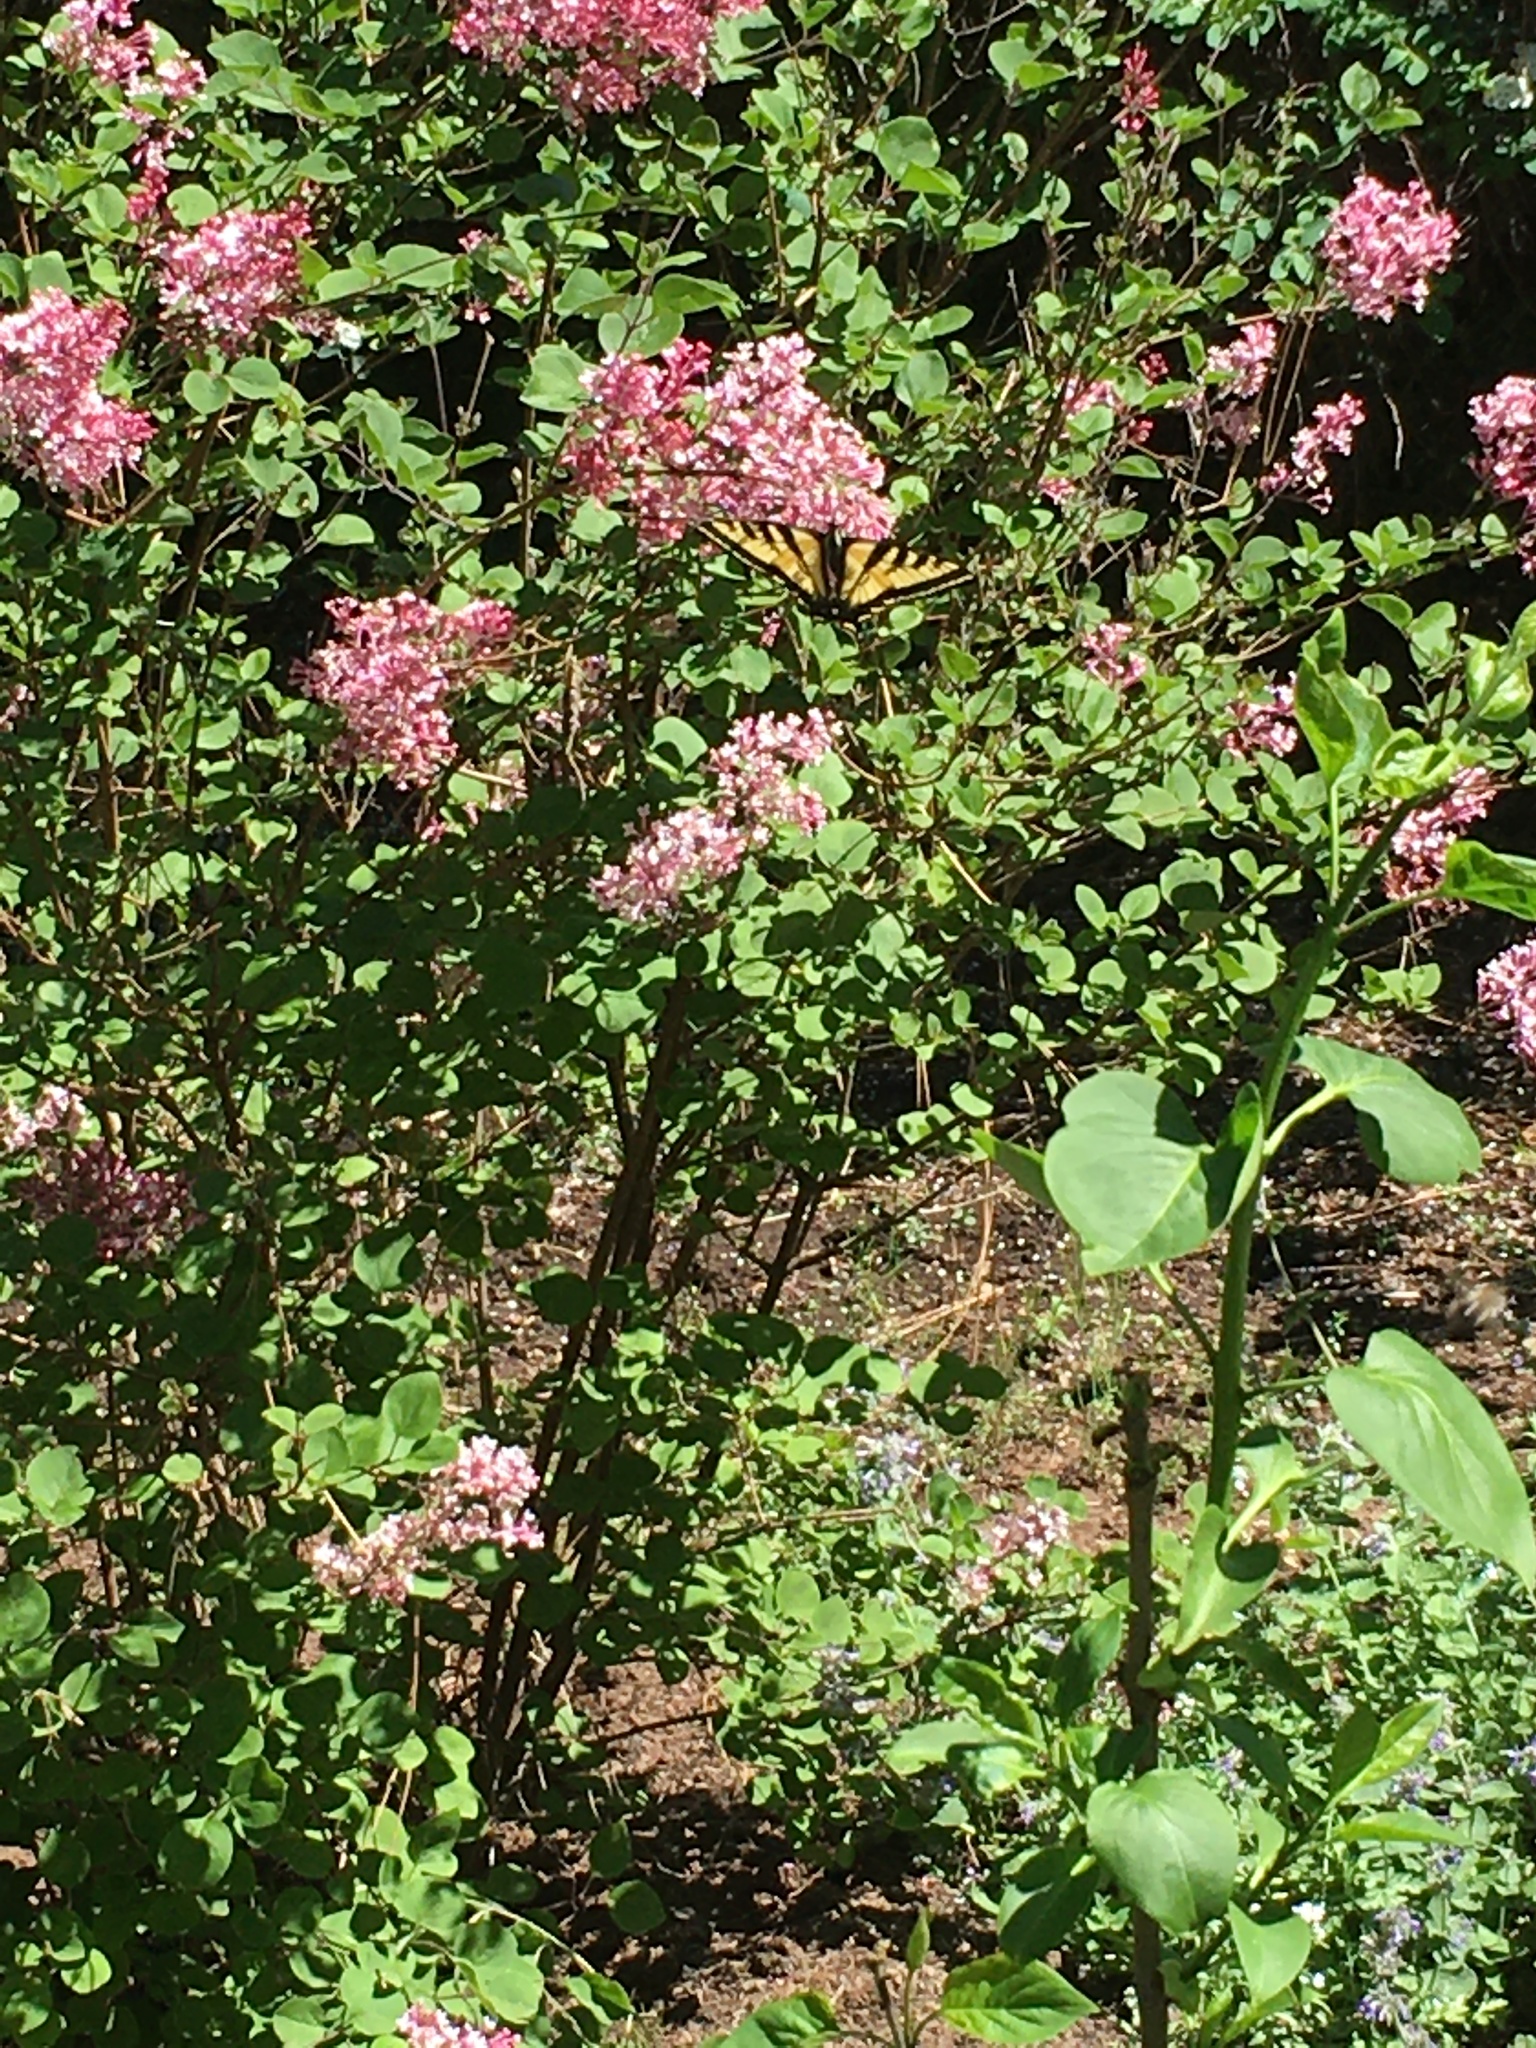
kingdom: Animalia
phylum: Arthropoda
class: Insecta
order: Lepidoptera
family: Papilionidae
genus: Papilio
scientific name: Papilio rutulus
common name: Western tiger swallowtail
